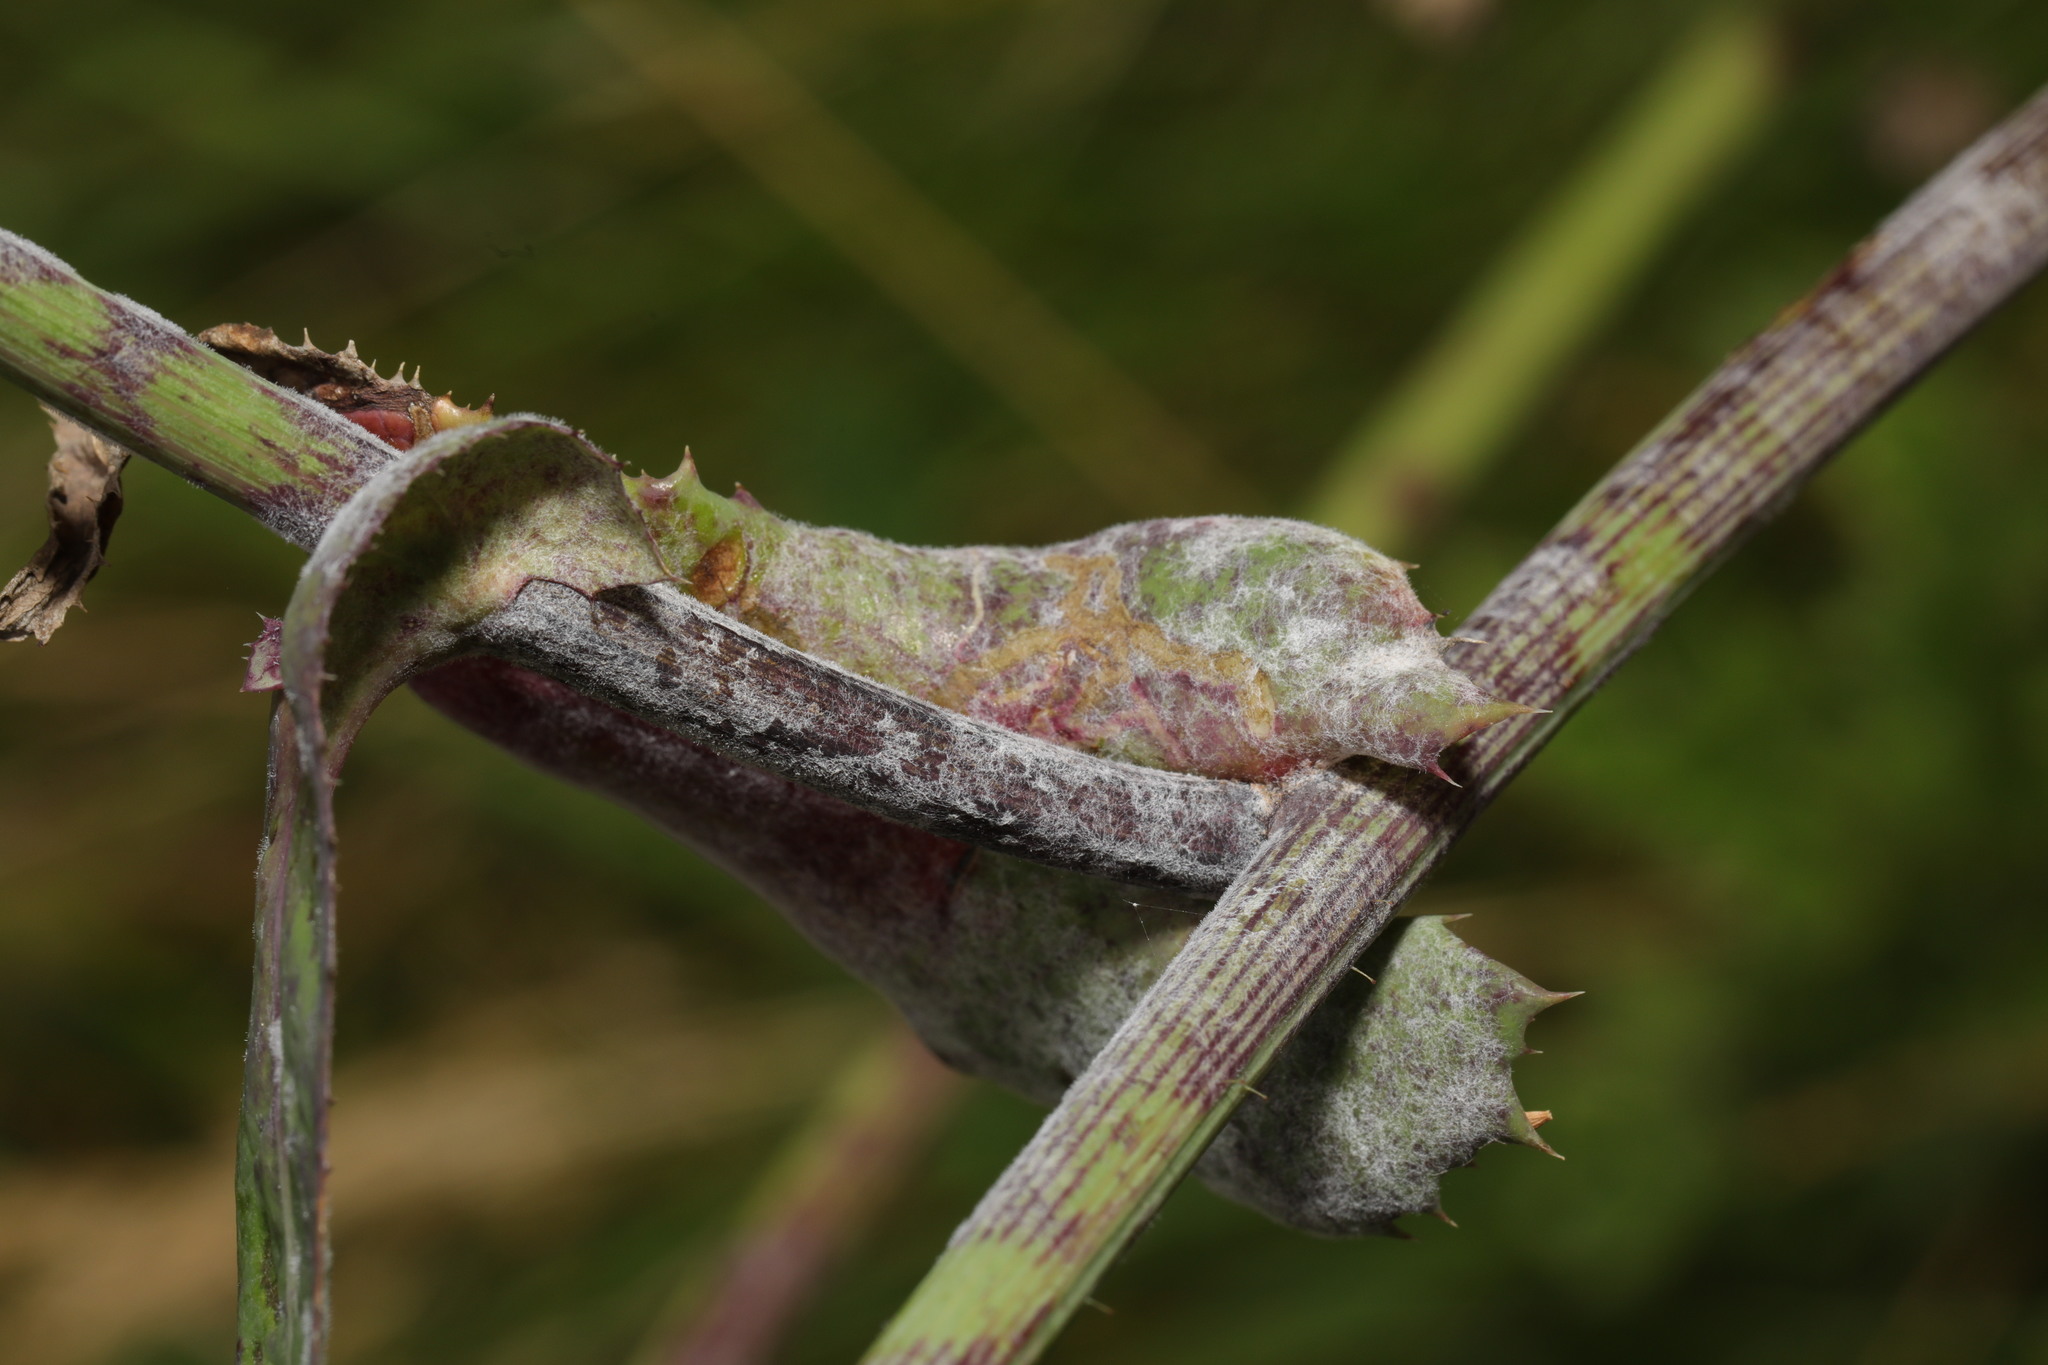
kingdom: Fungi
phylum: Ascomycota
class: Leotiomycetes
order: Helotiales
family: Erysiphaceae
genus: Golovinomyces
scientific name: Golovinomyces sonchicola
